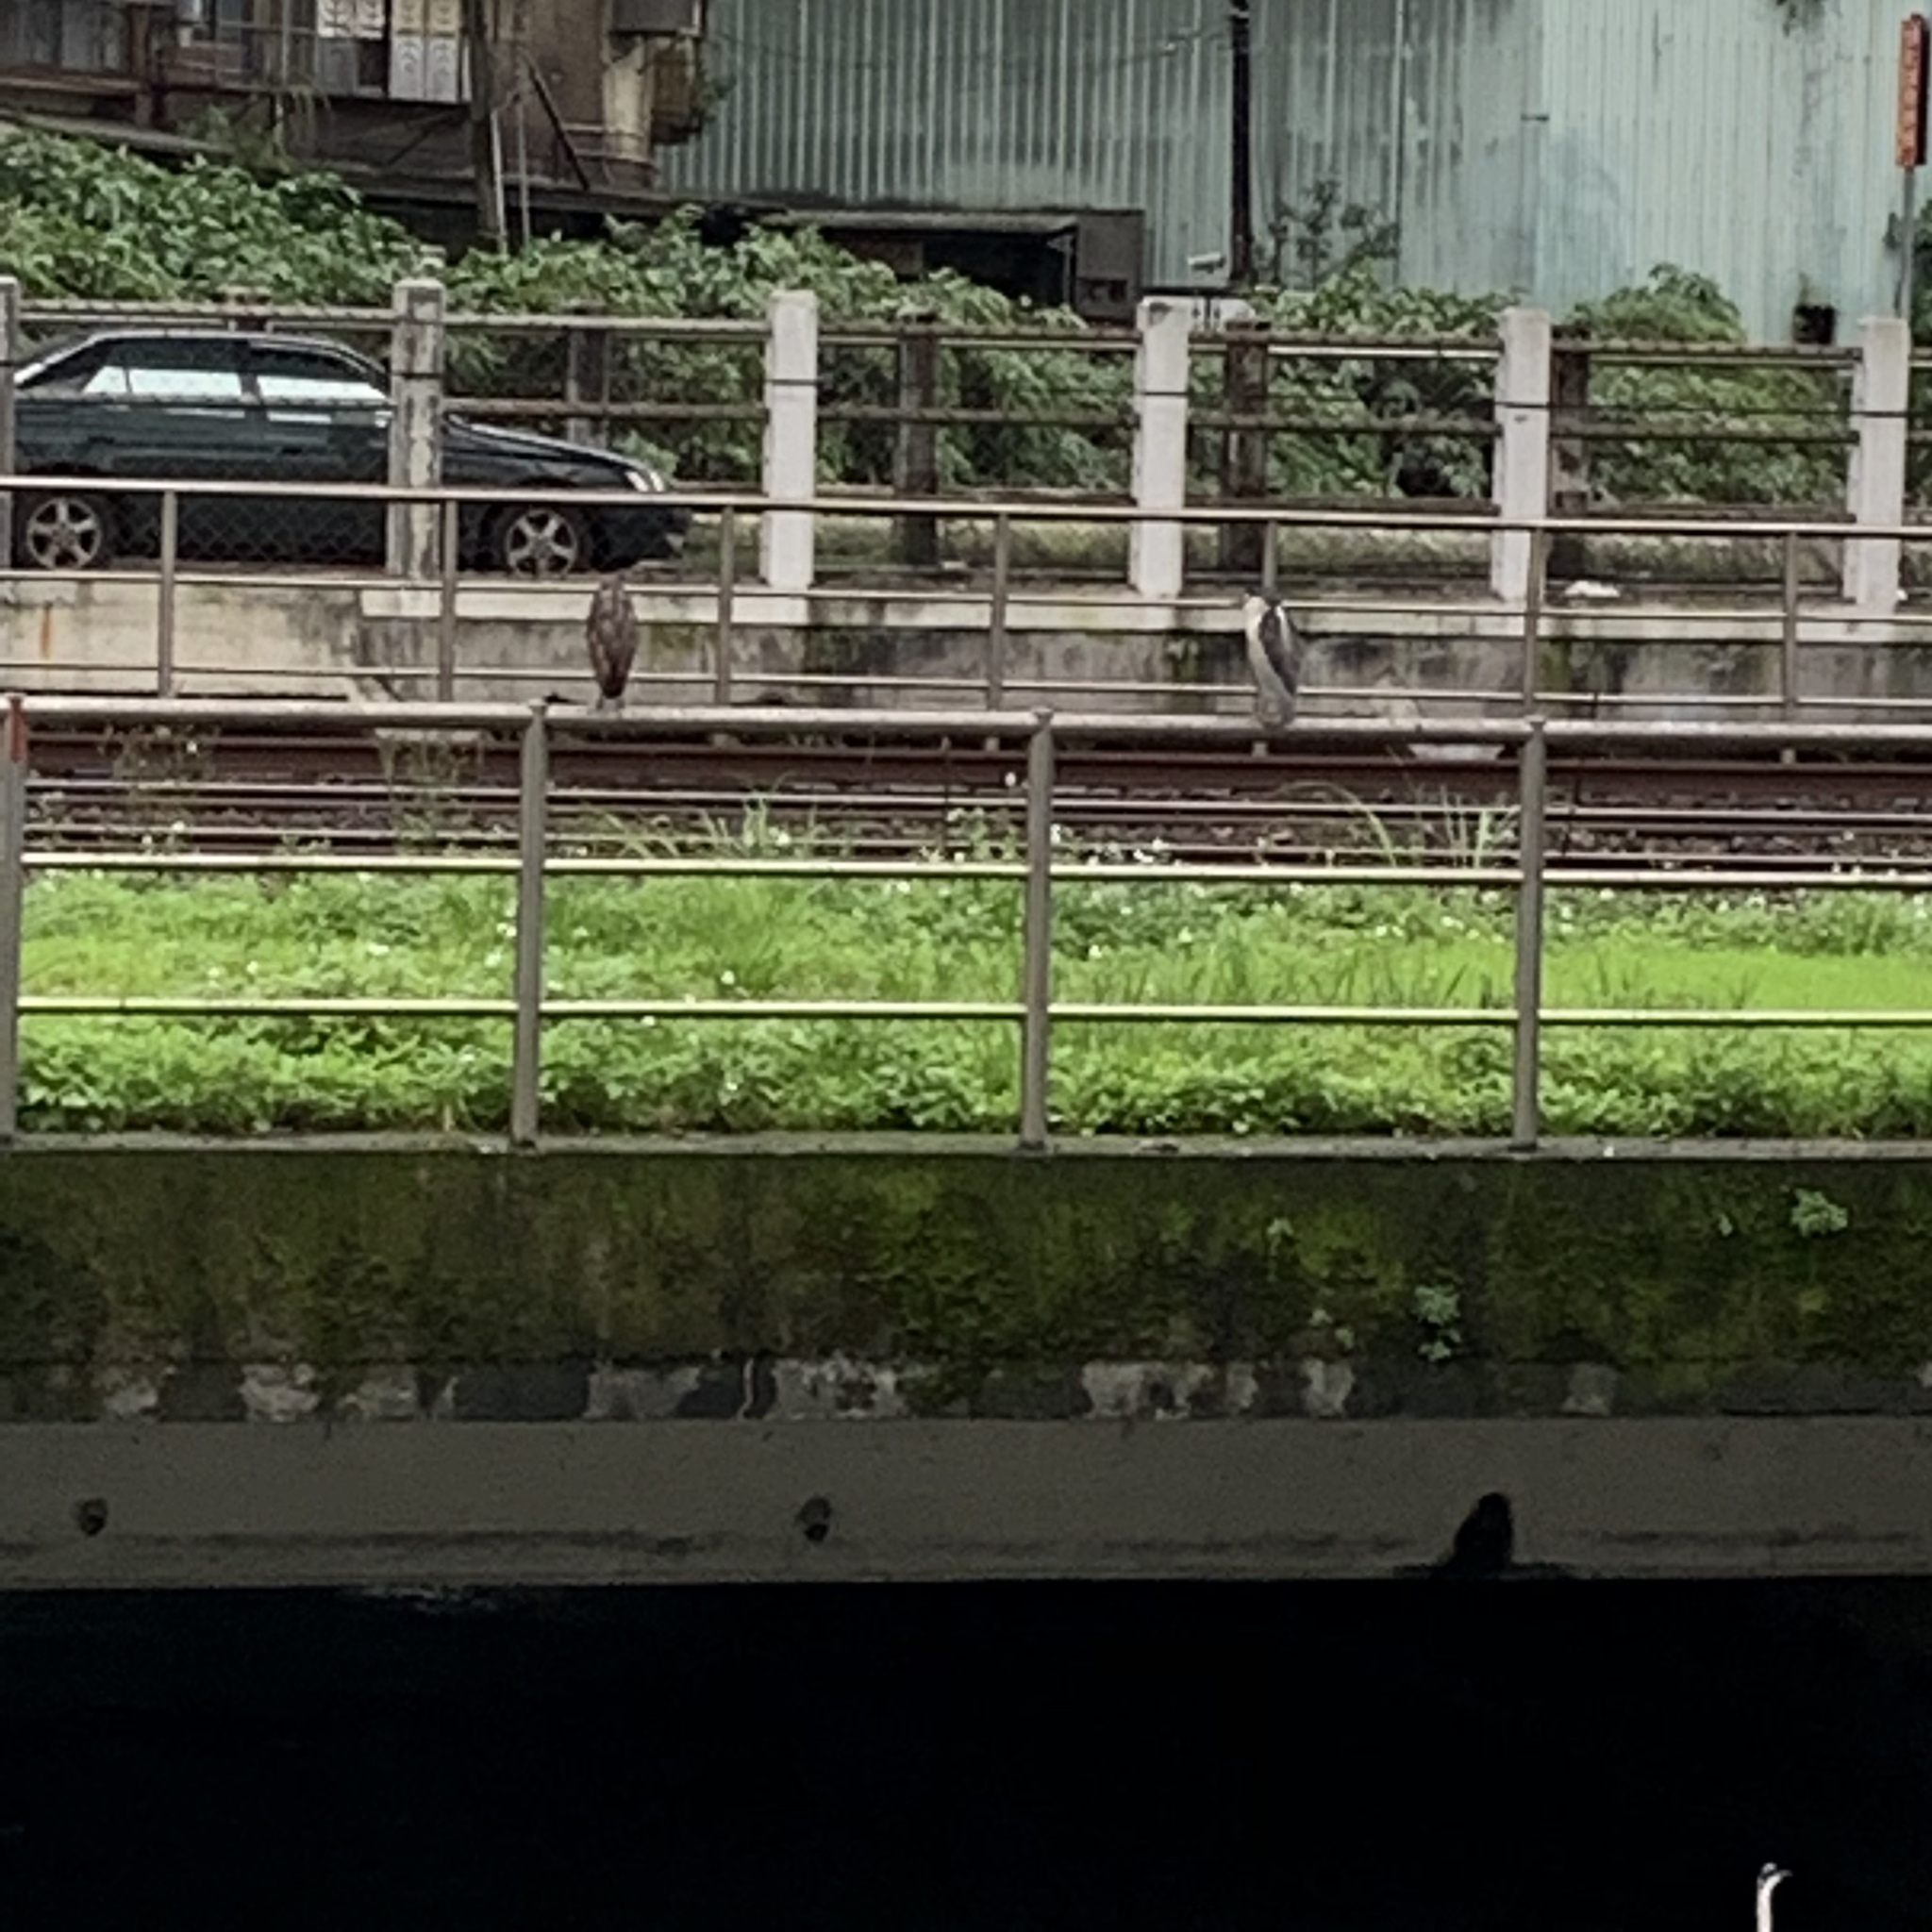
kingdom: Animalia
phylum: Chordata
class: Aves
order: Pelecaniformes
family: Ardeidae
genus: Nycticorax
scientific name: Nycticorax nycticorax
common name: Black-crowned night heron
